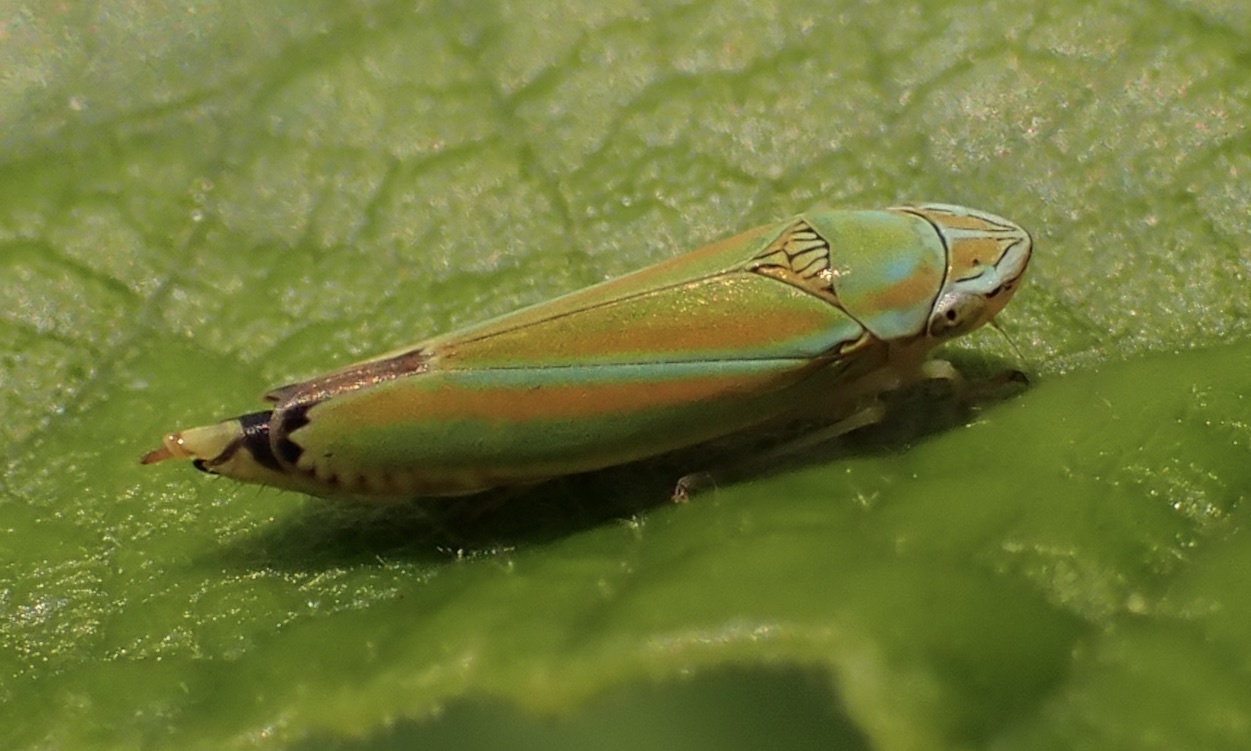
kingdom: Animalia
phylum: Arthropoda
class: Insecta
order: Hemiptera
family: Cicadellidae
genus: Graphocephala
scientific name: Graphocephala versuta
